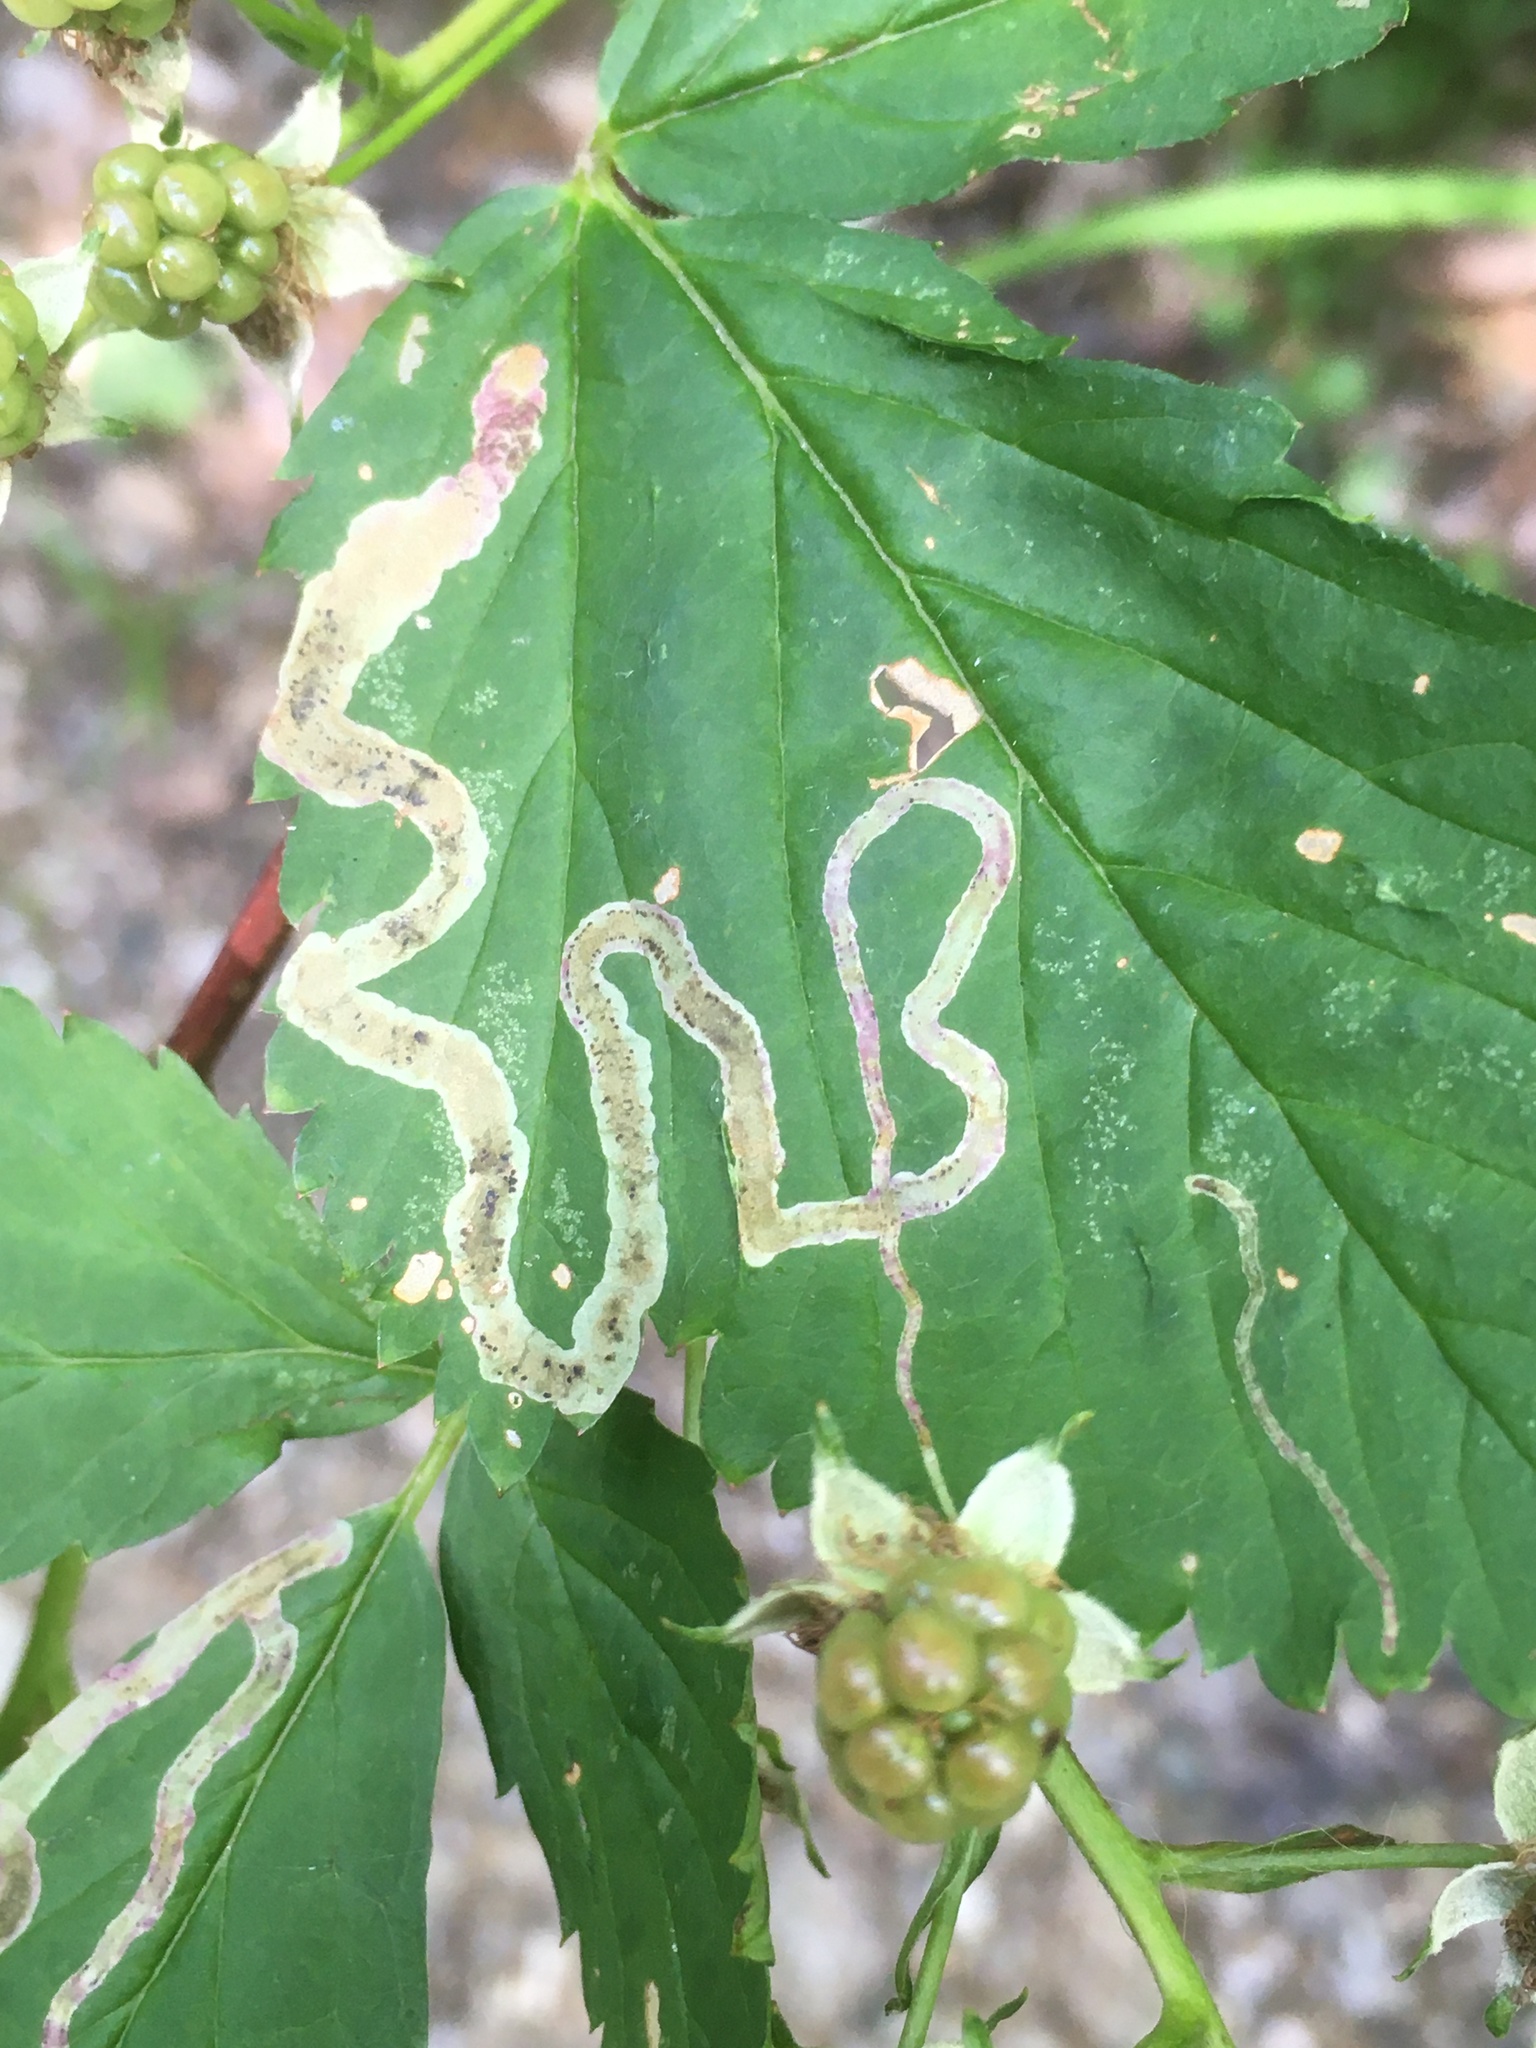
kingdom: Animalia
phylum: Arthropoda
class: Insecta
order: Diptera
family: Agromyzidae
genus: Agromyza
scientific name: Agromyza vockerothi
